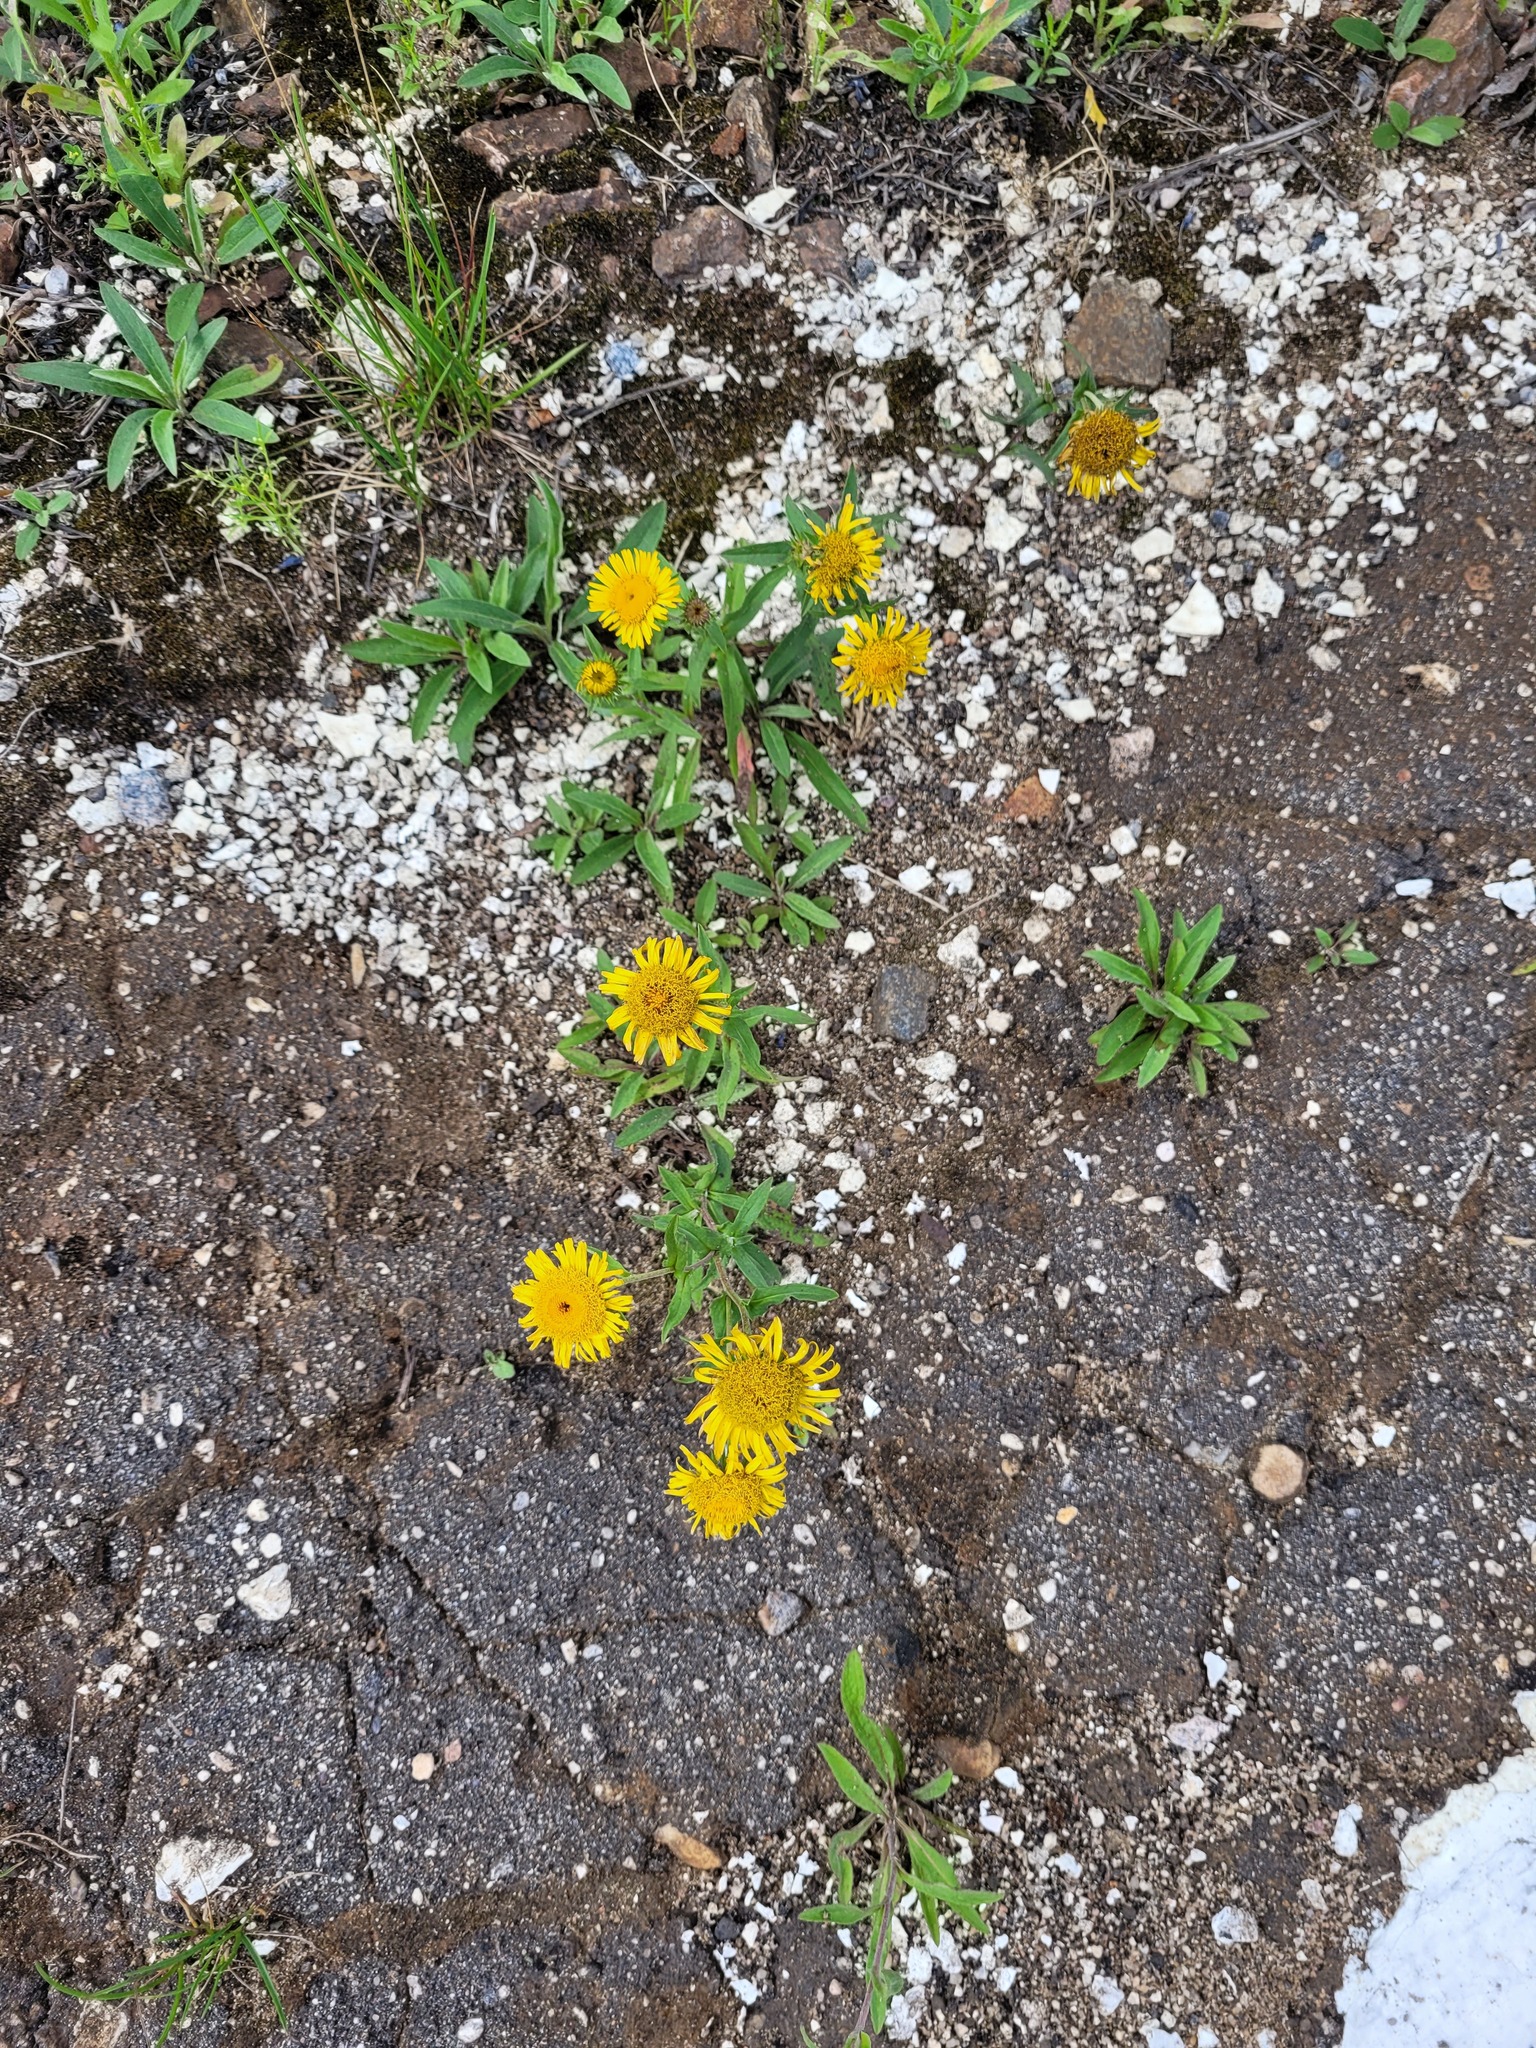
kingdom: Plantae
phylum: Tracheophyta
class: Magnoliopsida
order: Asterales
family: Asteraceae
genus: Pentanema
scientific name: Pentanema britannicum
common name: British elecampane
